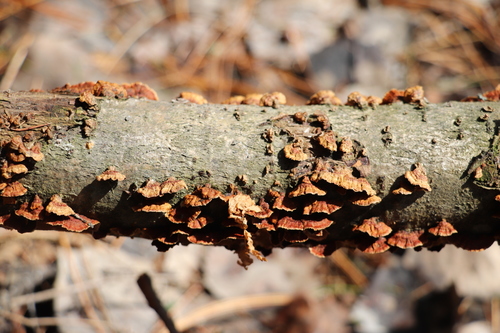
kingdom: Fungi
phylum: Basidiomycota
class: Agaricomycetes
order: Hymenochaetales
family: Hymenochaetaceae
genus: Hydnoporia
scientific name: Hydnoporia tabacina
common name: Willow glue
